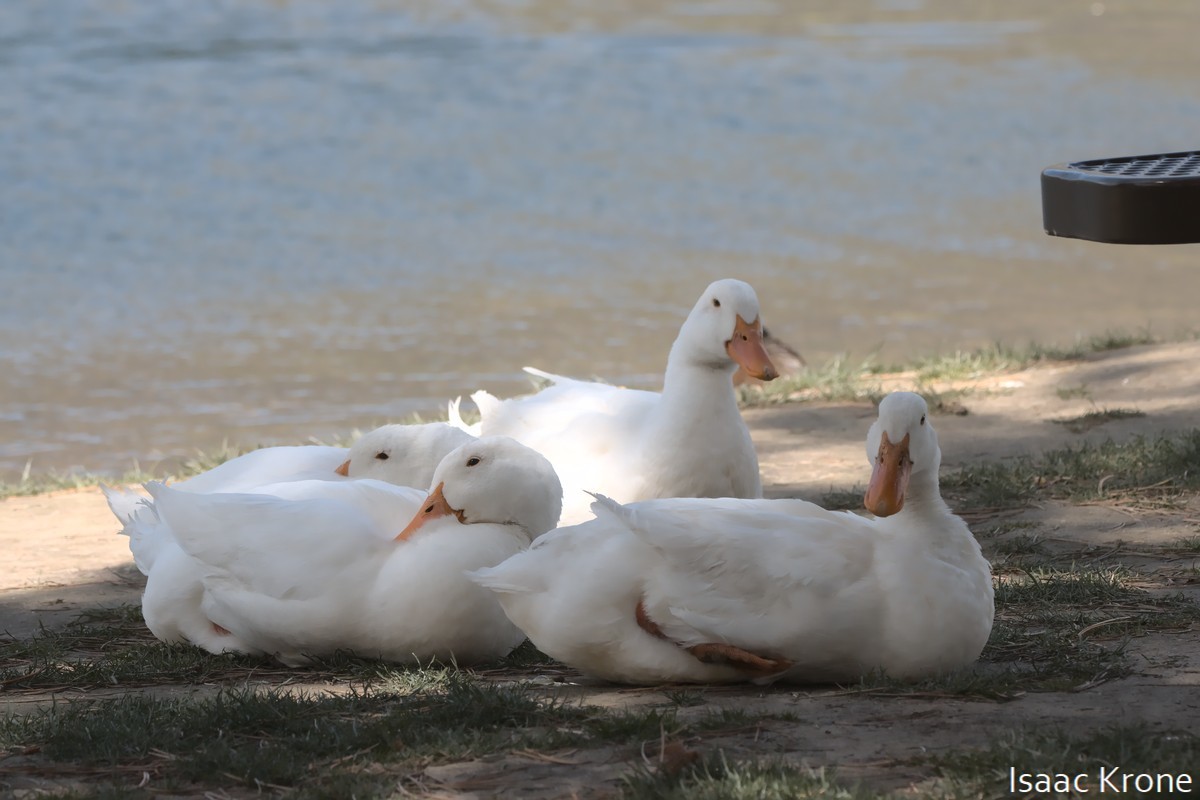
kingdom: Animalia
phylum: Chordata
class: Aves
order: Anseriformes
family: Anatidae
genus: Anas
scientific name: Anas platyrhynchos
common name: Mallard
